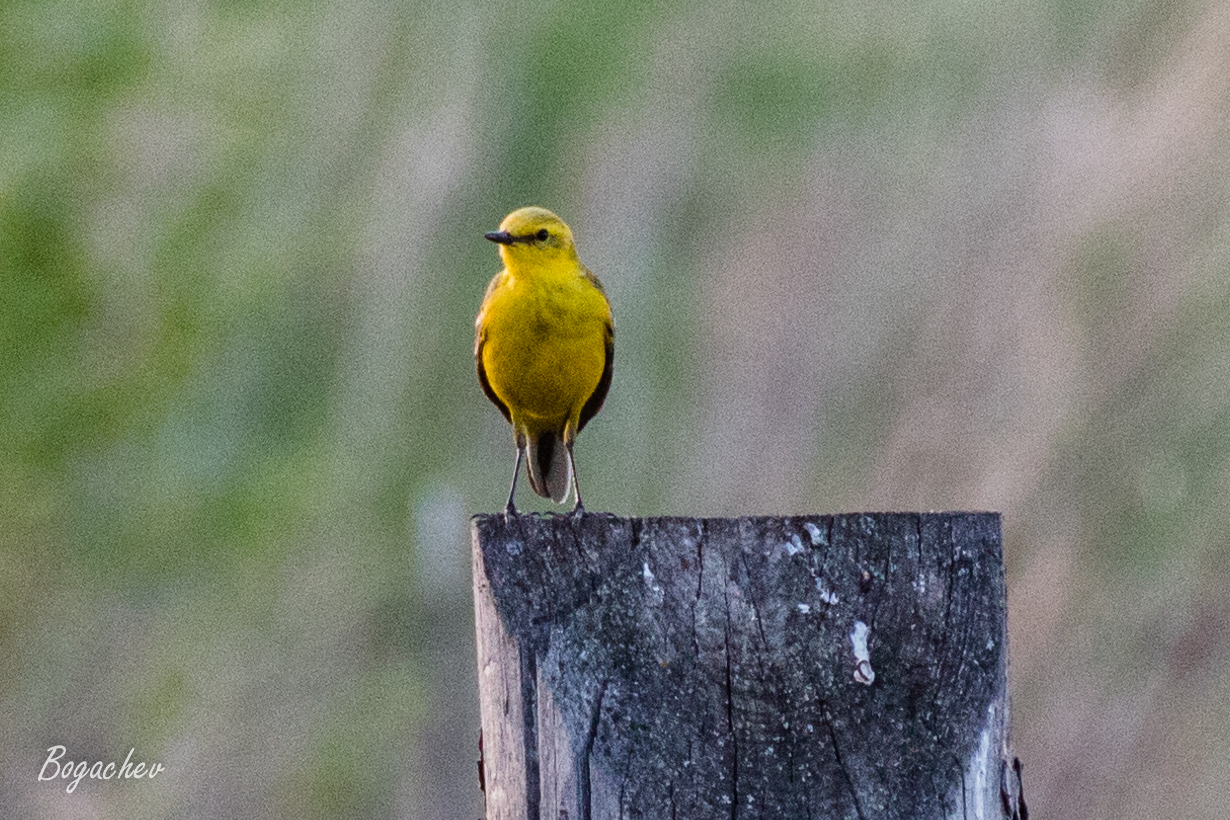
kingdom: Animalia
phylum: Chordata
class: Aves
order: Passeriformes
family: Motacillidae
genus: Motacilla
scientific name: Motacilla flava
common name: Western yellow wagtail
